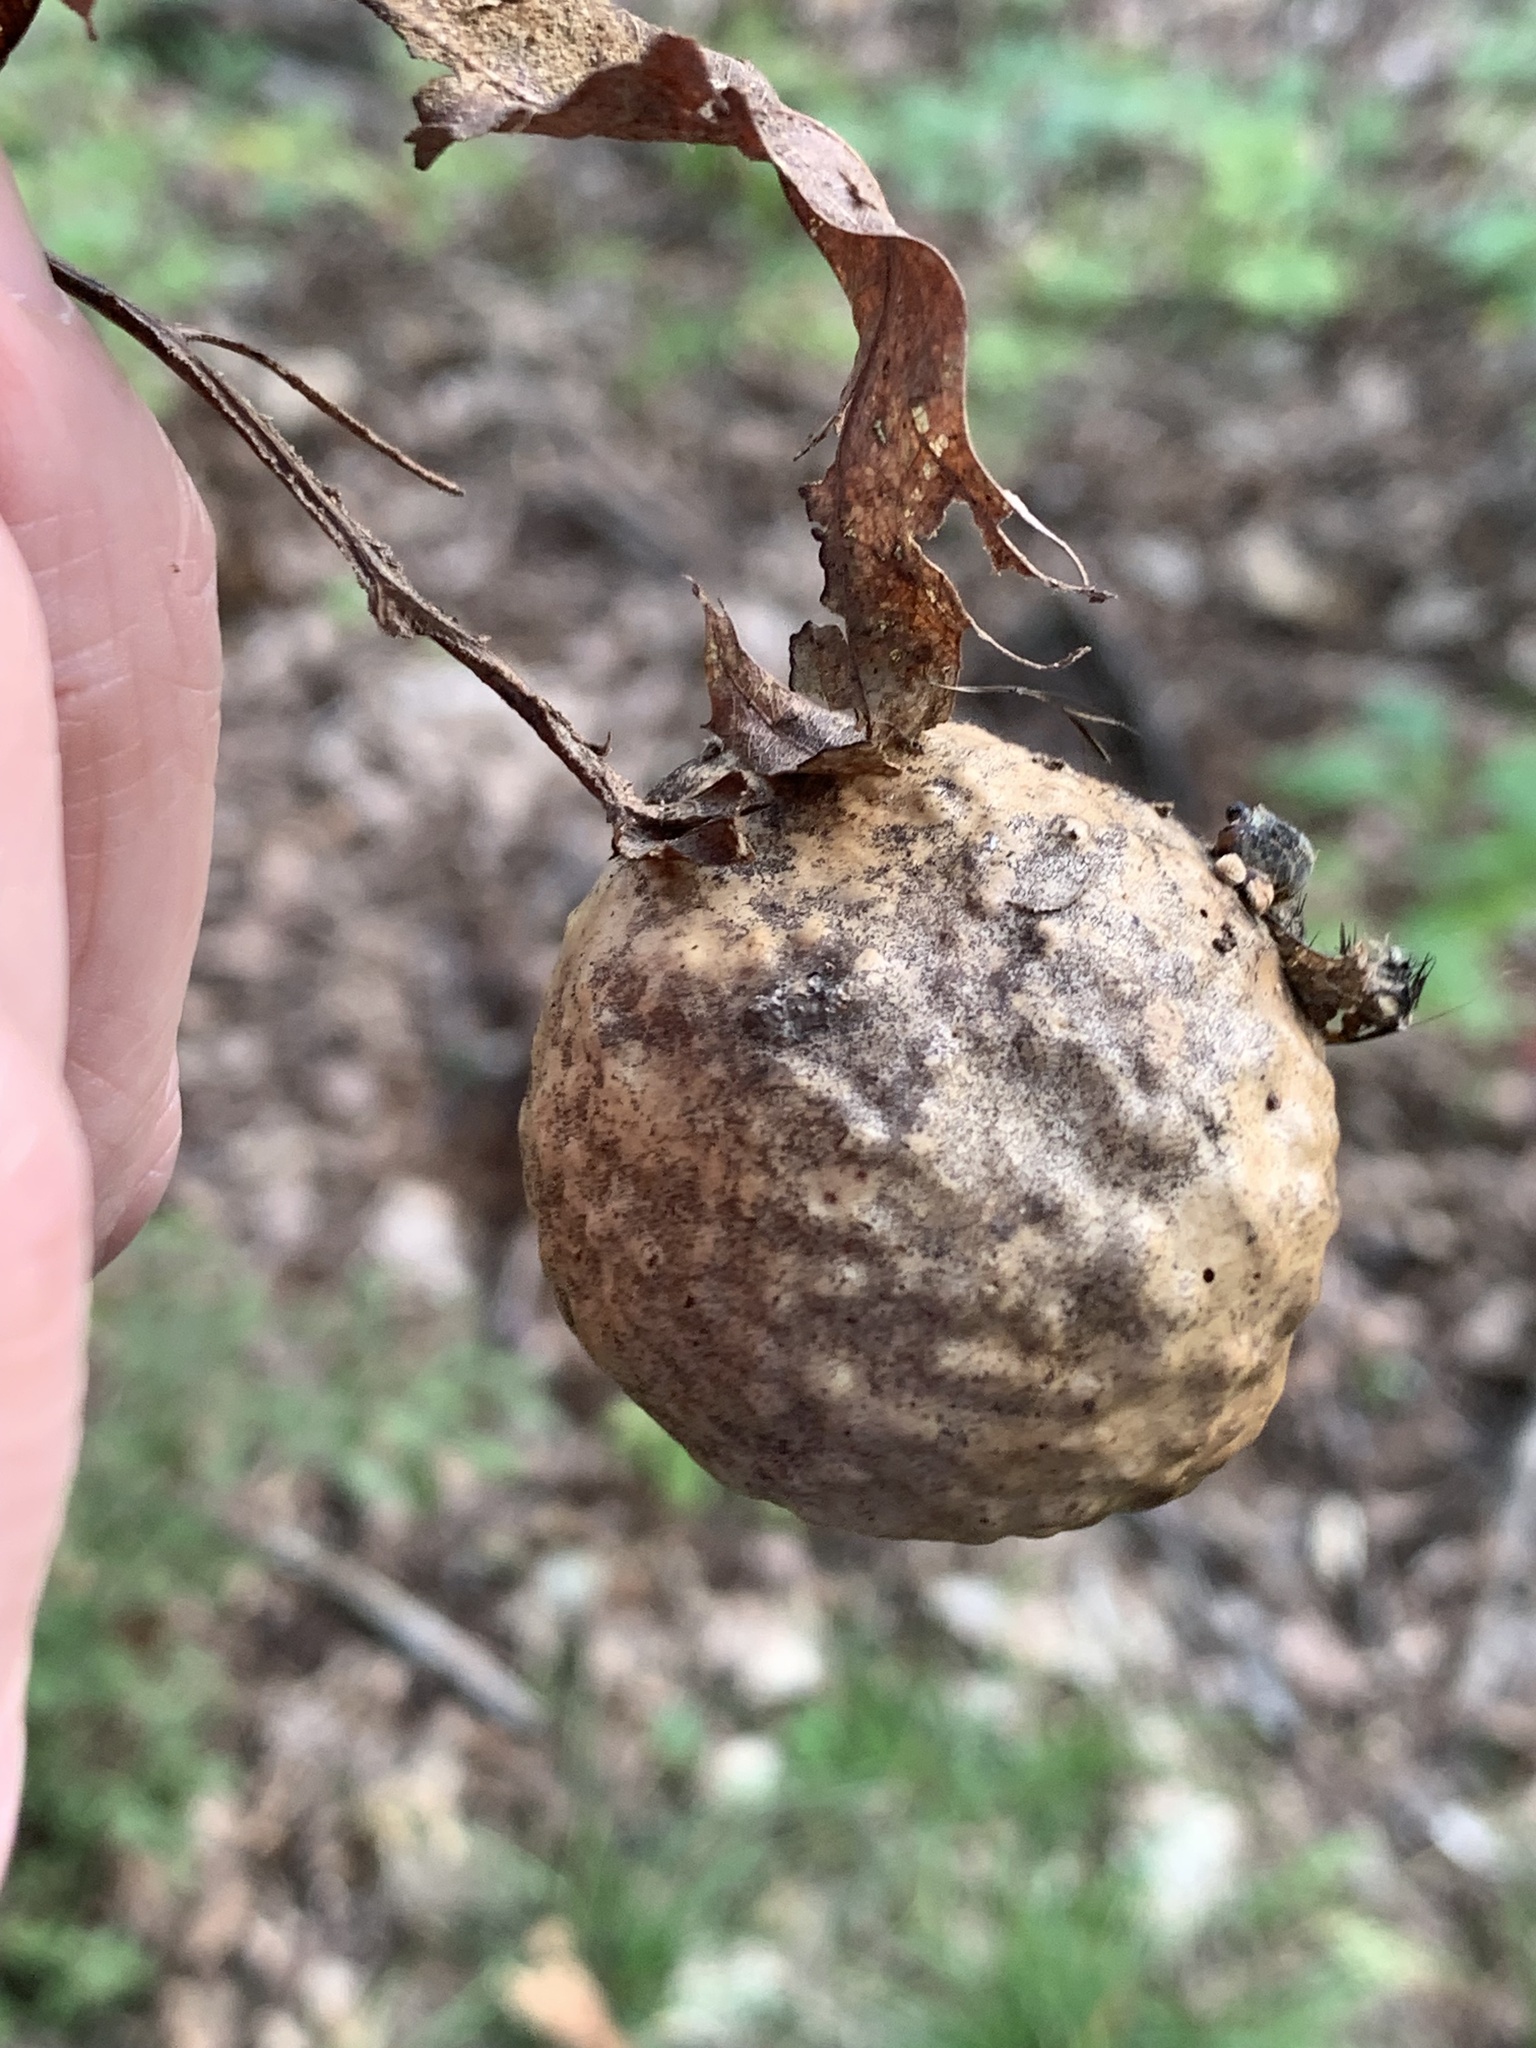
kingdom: Animalia
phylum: Arthropoda
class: Insecta
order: Hymenoptera
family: Cynipidae
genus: Amphibolips
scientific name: Amphibolips
